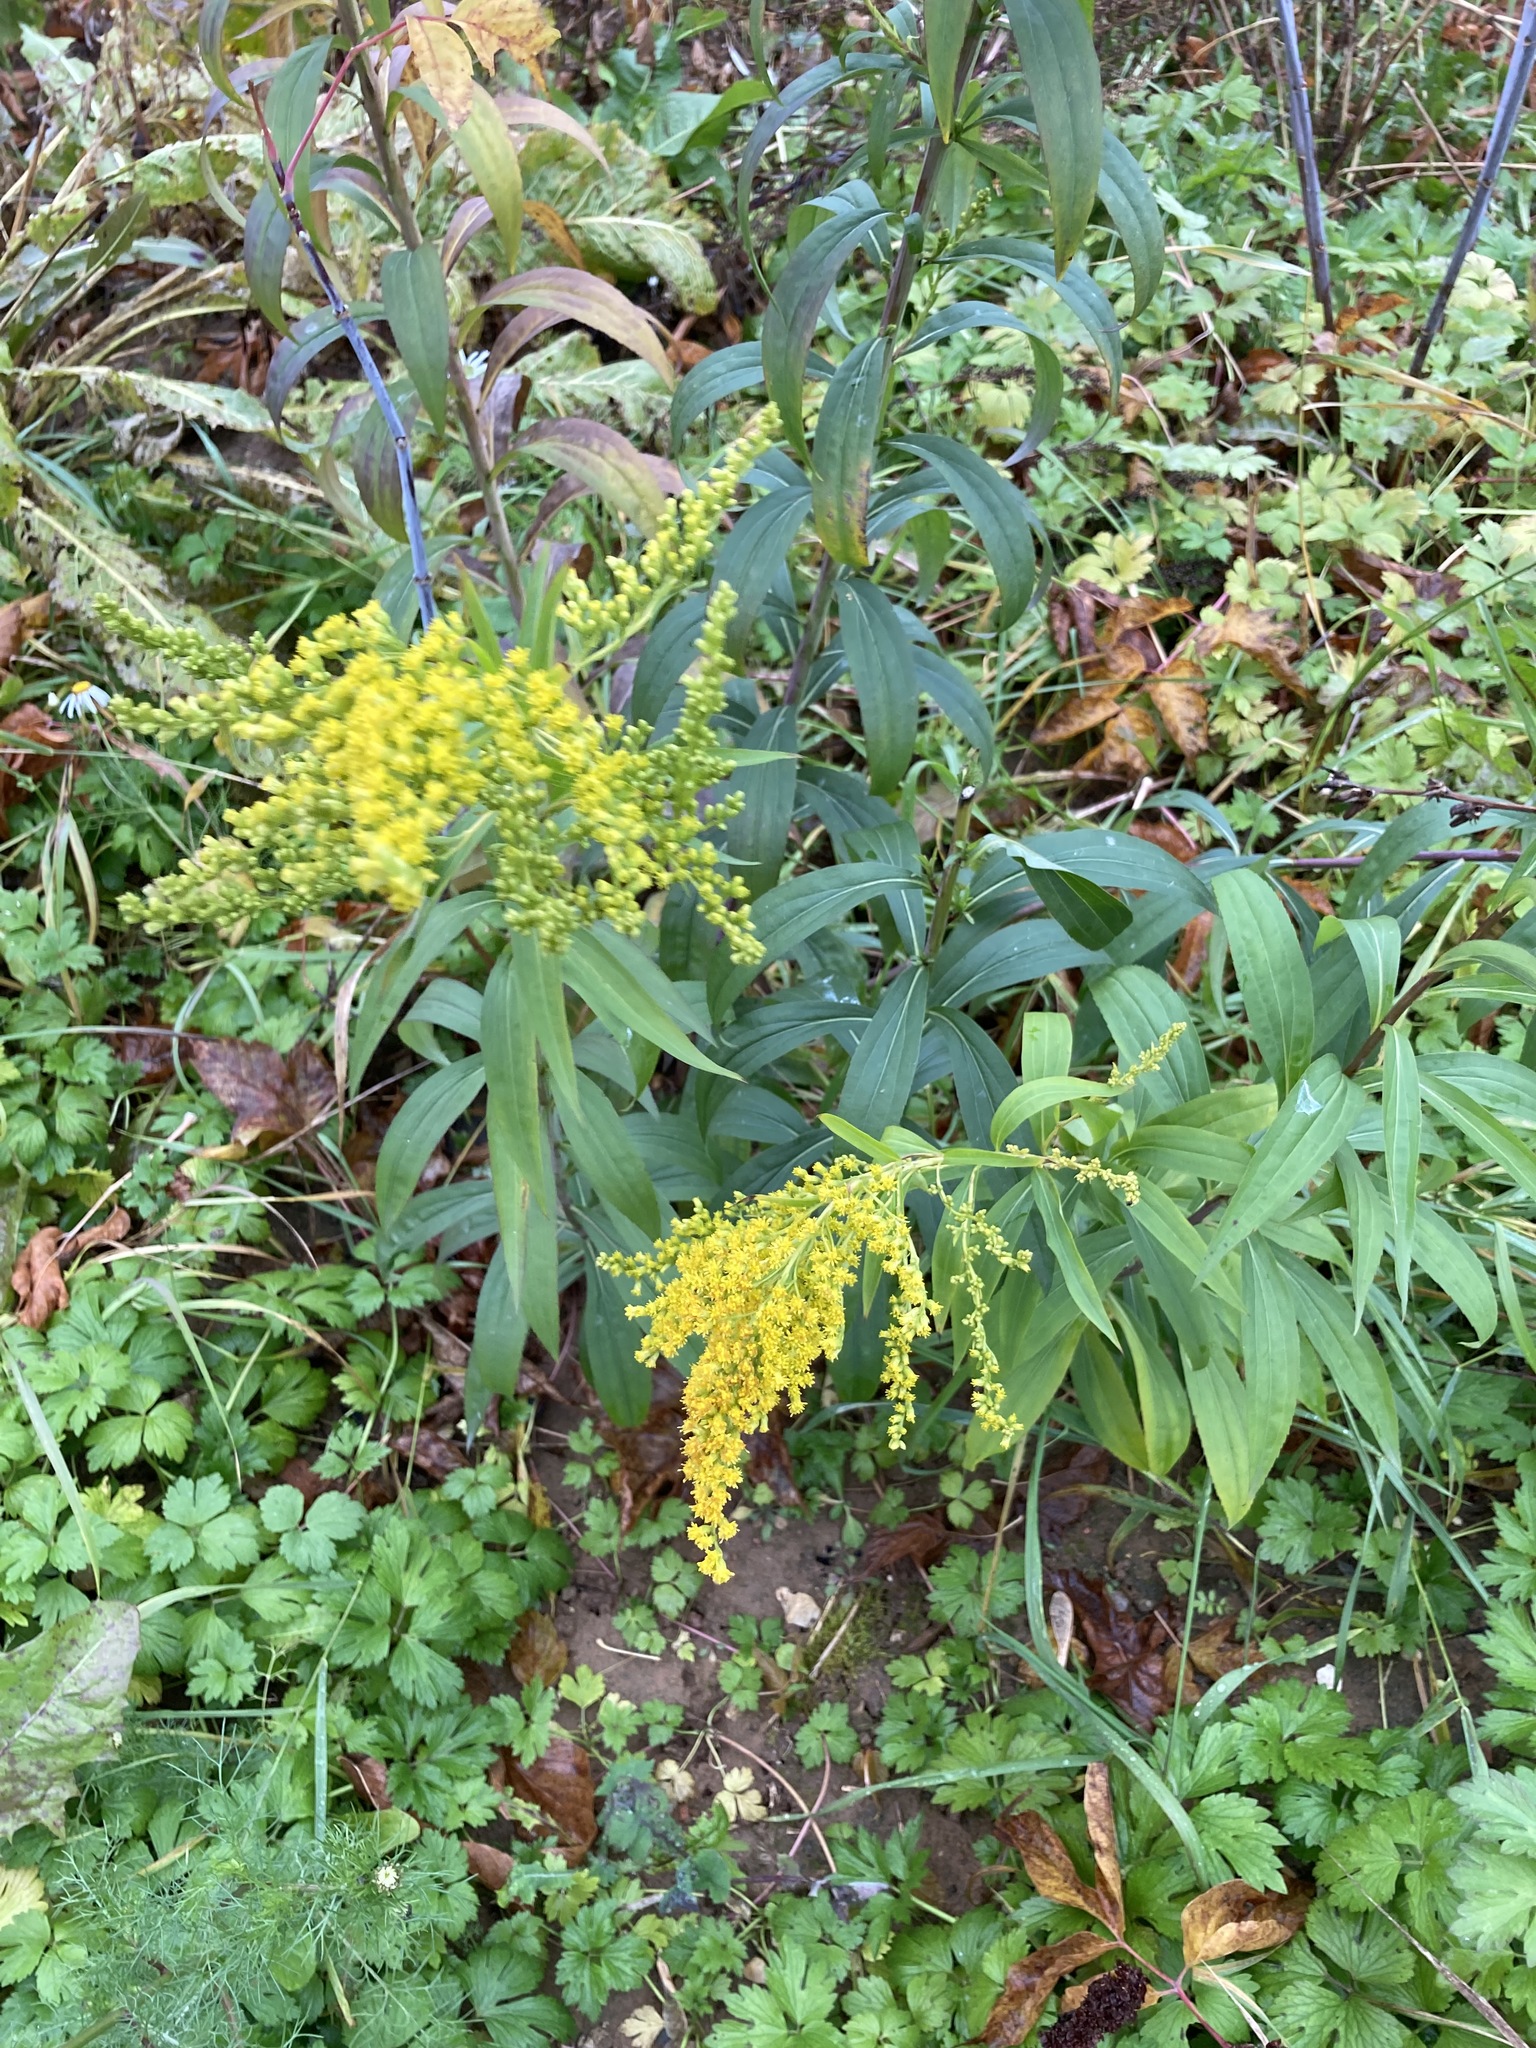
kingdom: Plantae
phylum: Tracheophyta
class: Magnoliopsida
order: Asterales
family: Asteraceae
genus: Solidago
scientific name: Solidago gigantea
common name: Giant goldenrod
